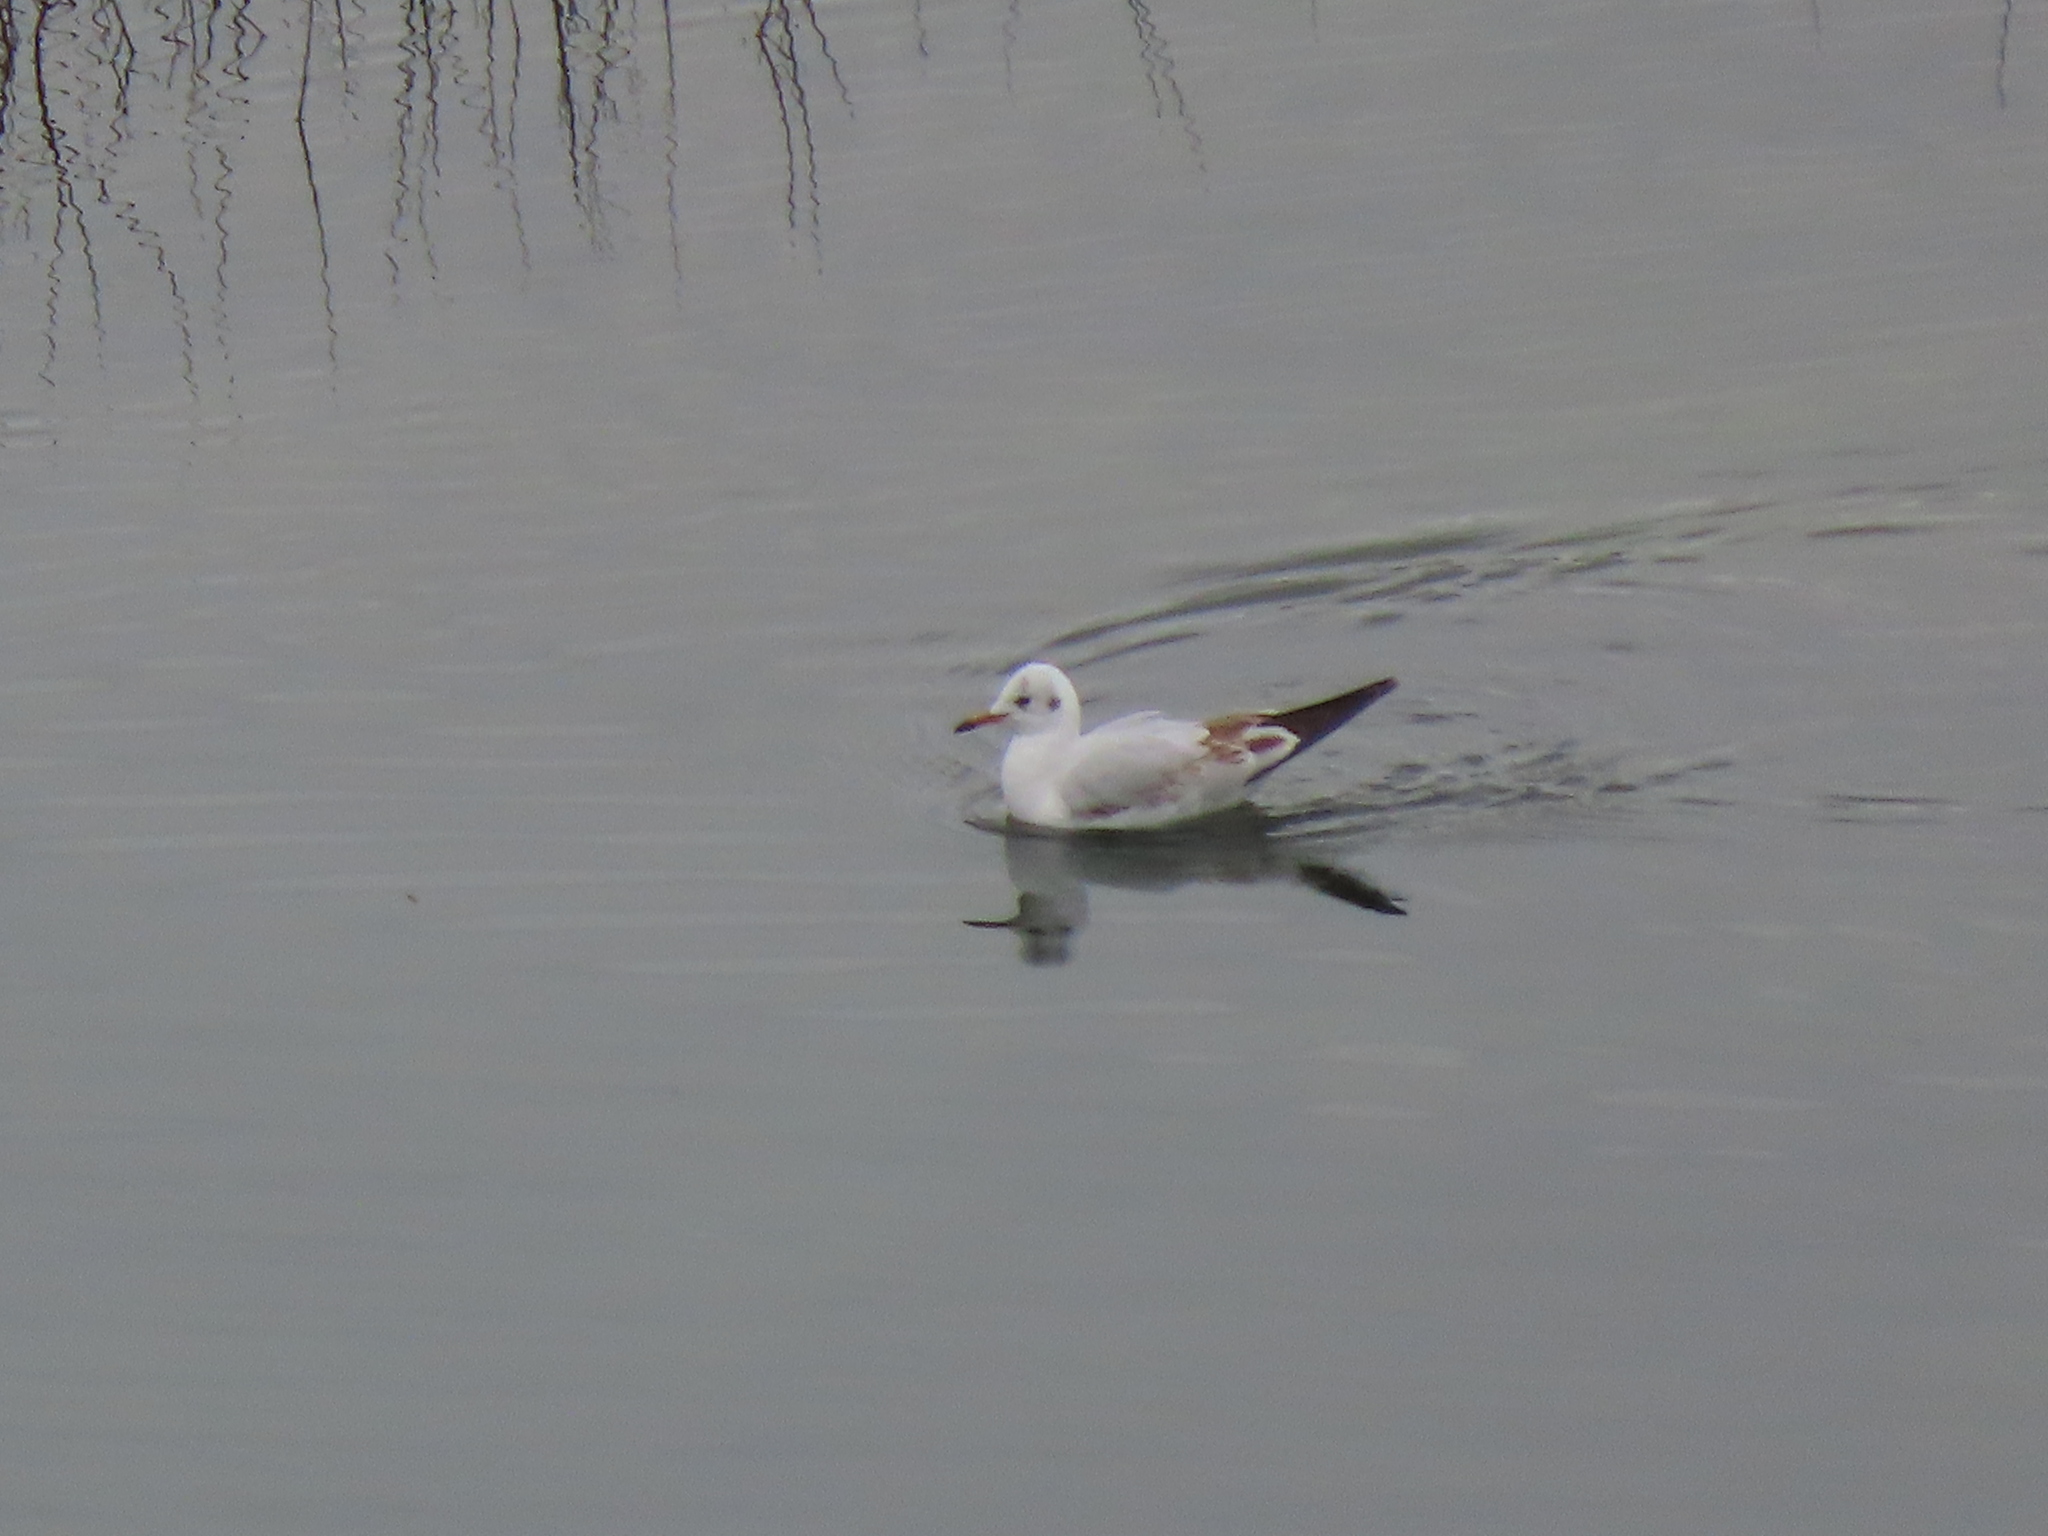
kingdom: Animalia
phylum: Chordata
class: Aves
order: Charadriiformes
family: Laridae
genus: Chroicocephalus
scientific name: Chroicocephalus ridibundus
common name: Black-headed gull
